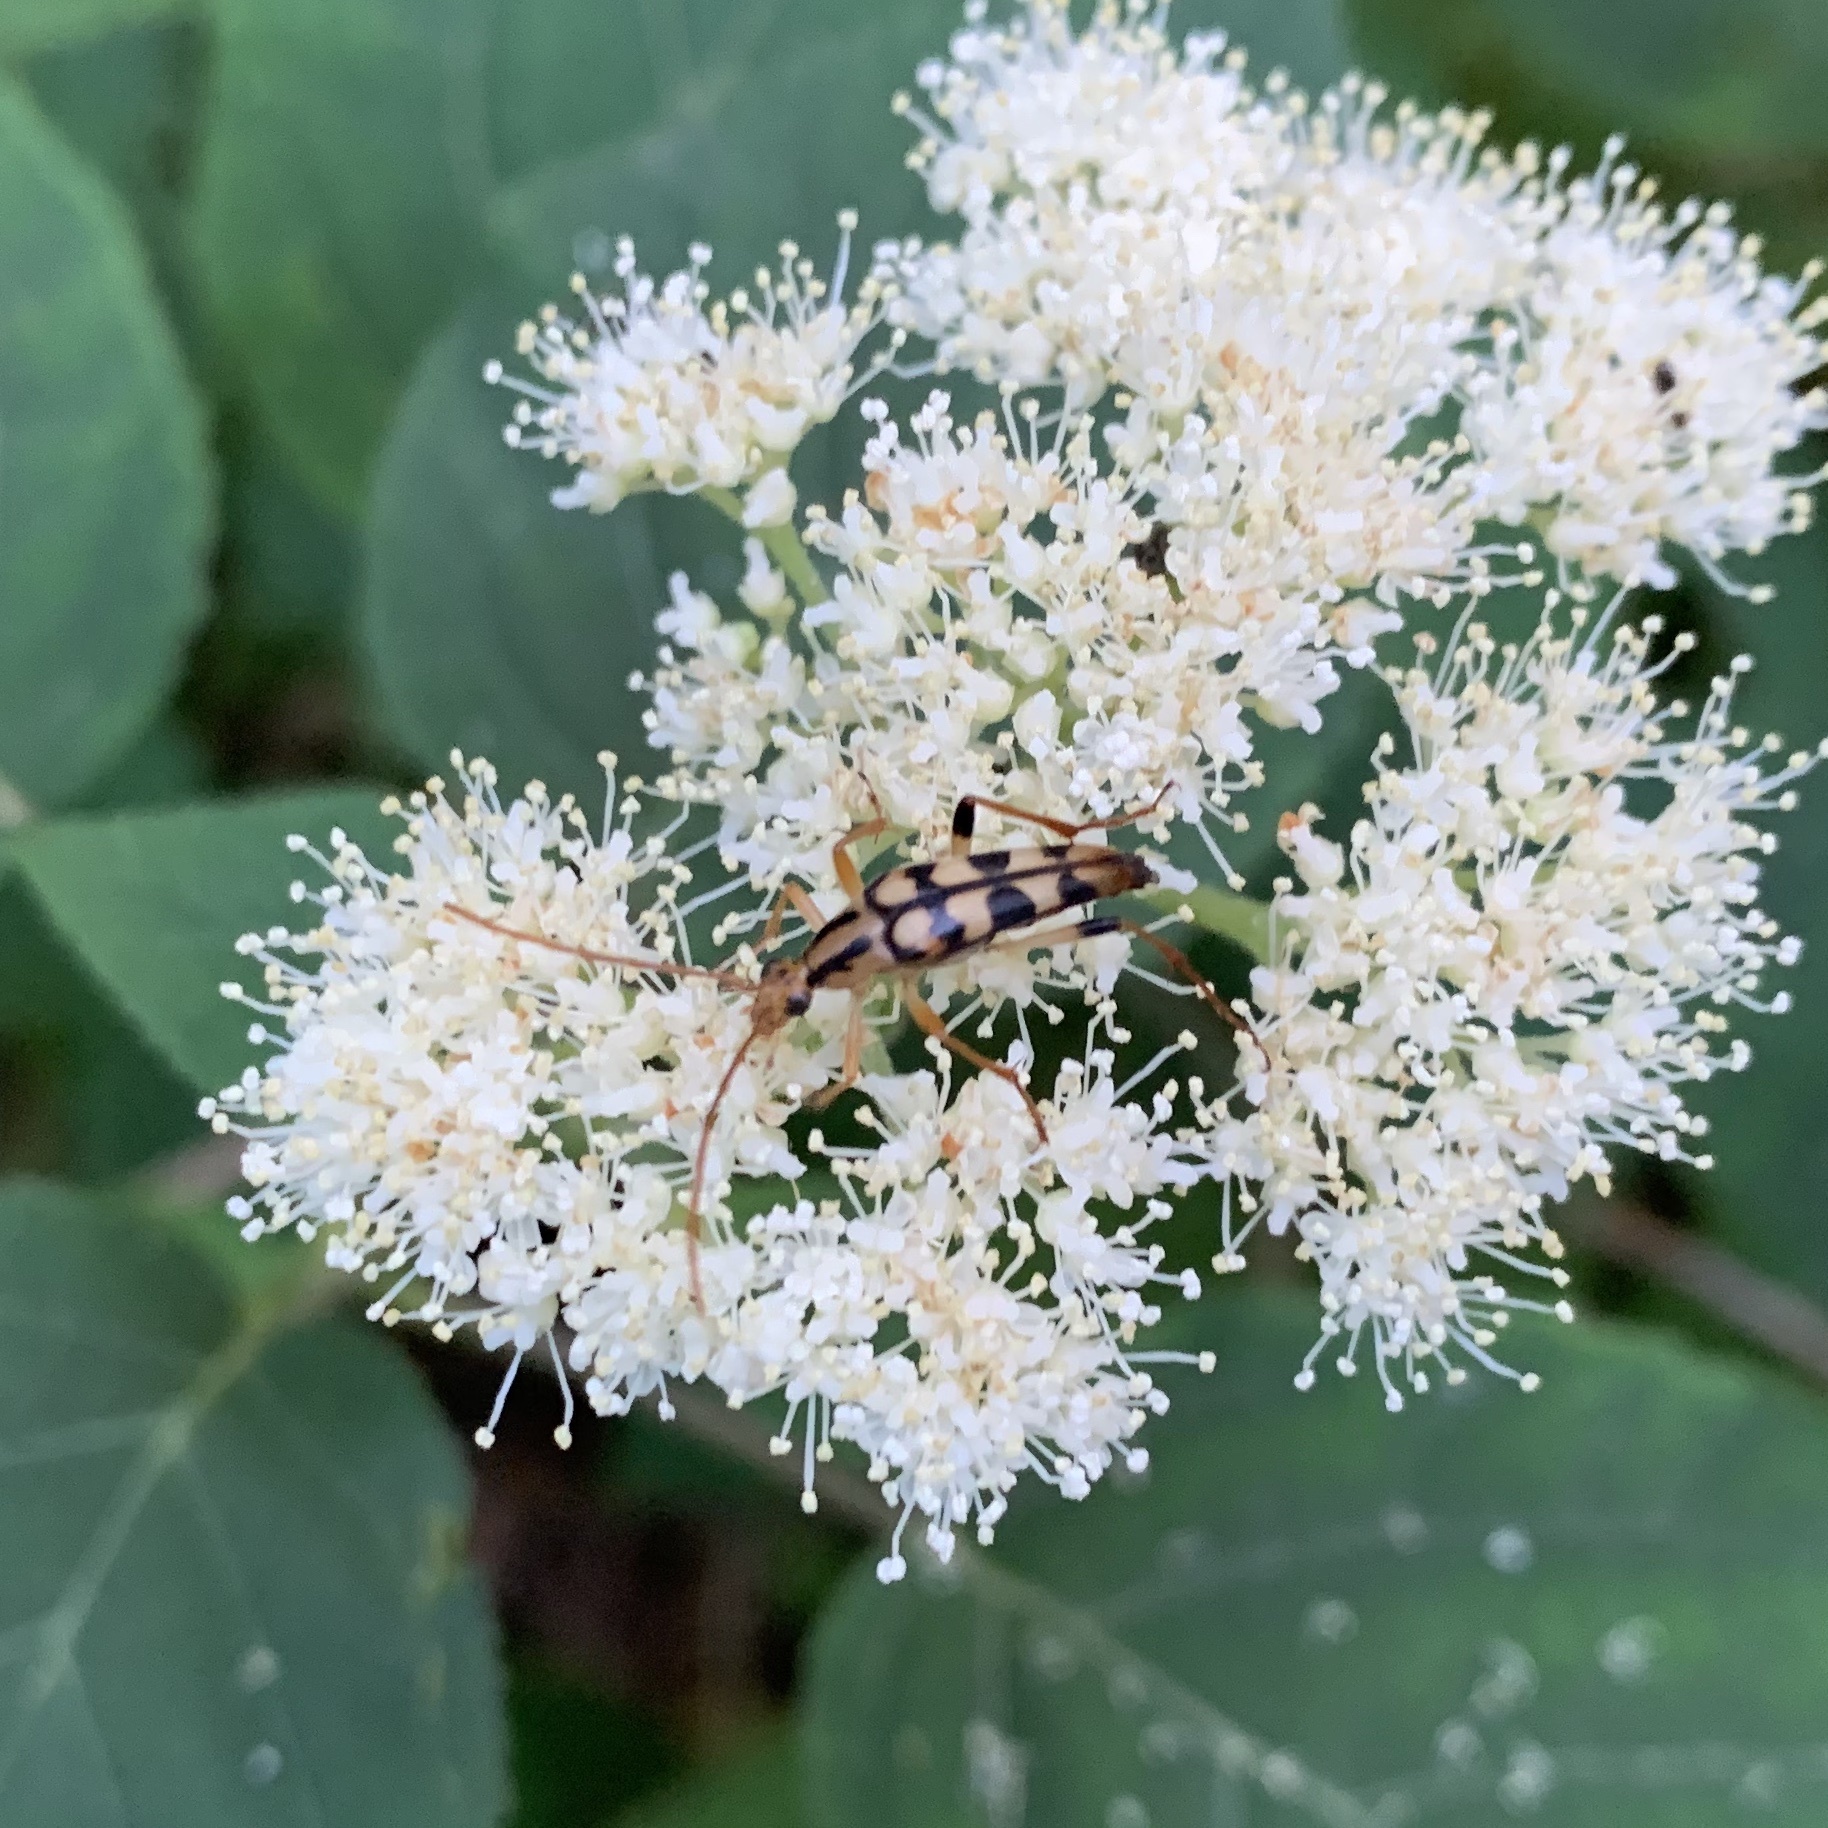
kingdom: Animalia
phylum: Arthropoda
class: Insecta
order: Coleoptera
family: Cerambycidae
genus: Strangalia
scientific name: Strangalia luteicornis
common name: Yellow-horned flower longhorn beetle
